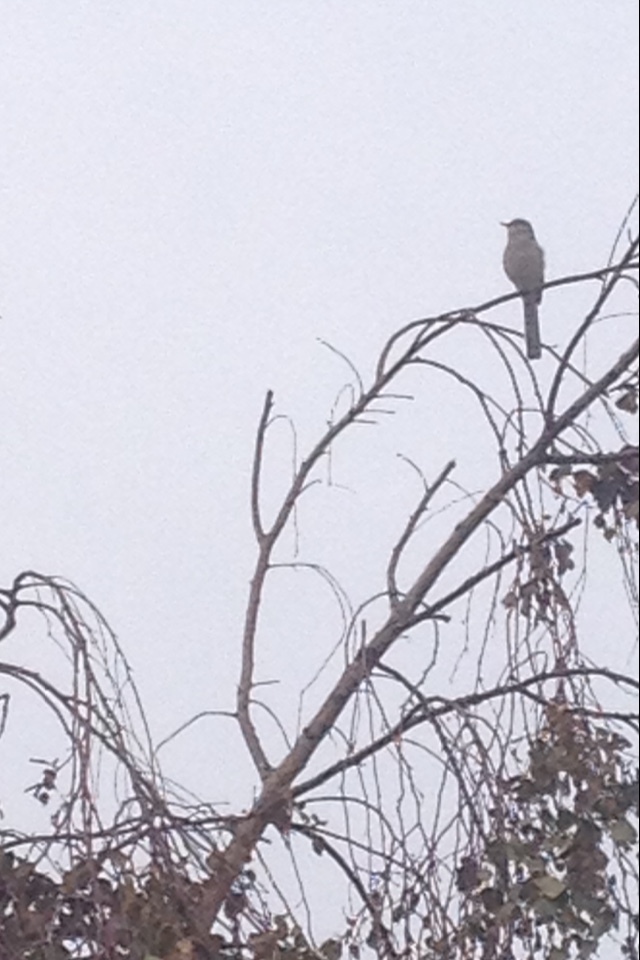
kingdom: Animalia
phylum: Chordata
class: Aves
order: Passeriformes
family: Mimidae
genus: Mimus
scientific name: Mimus polyglottos
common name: Northern mockingbird
